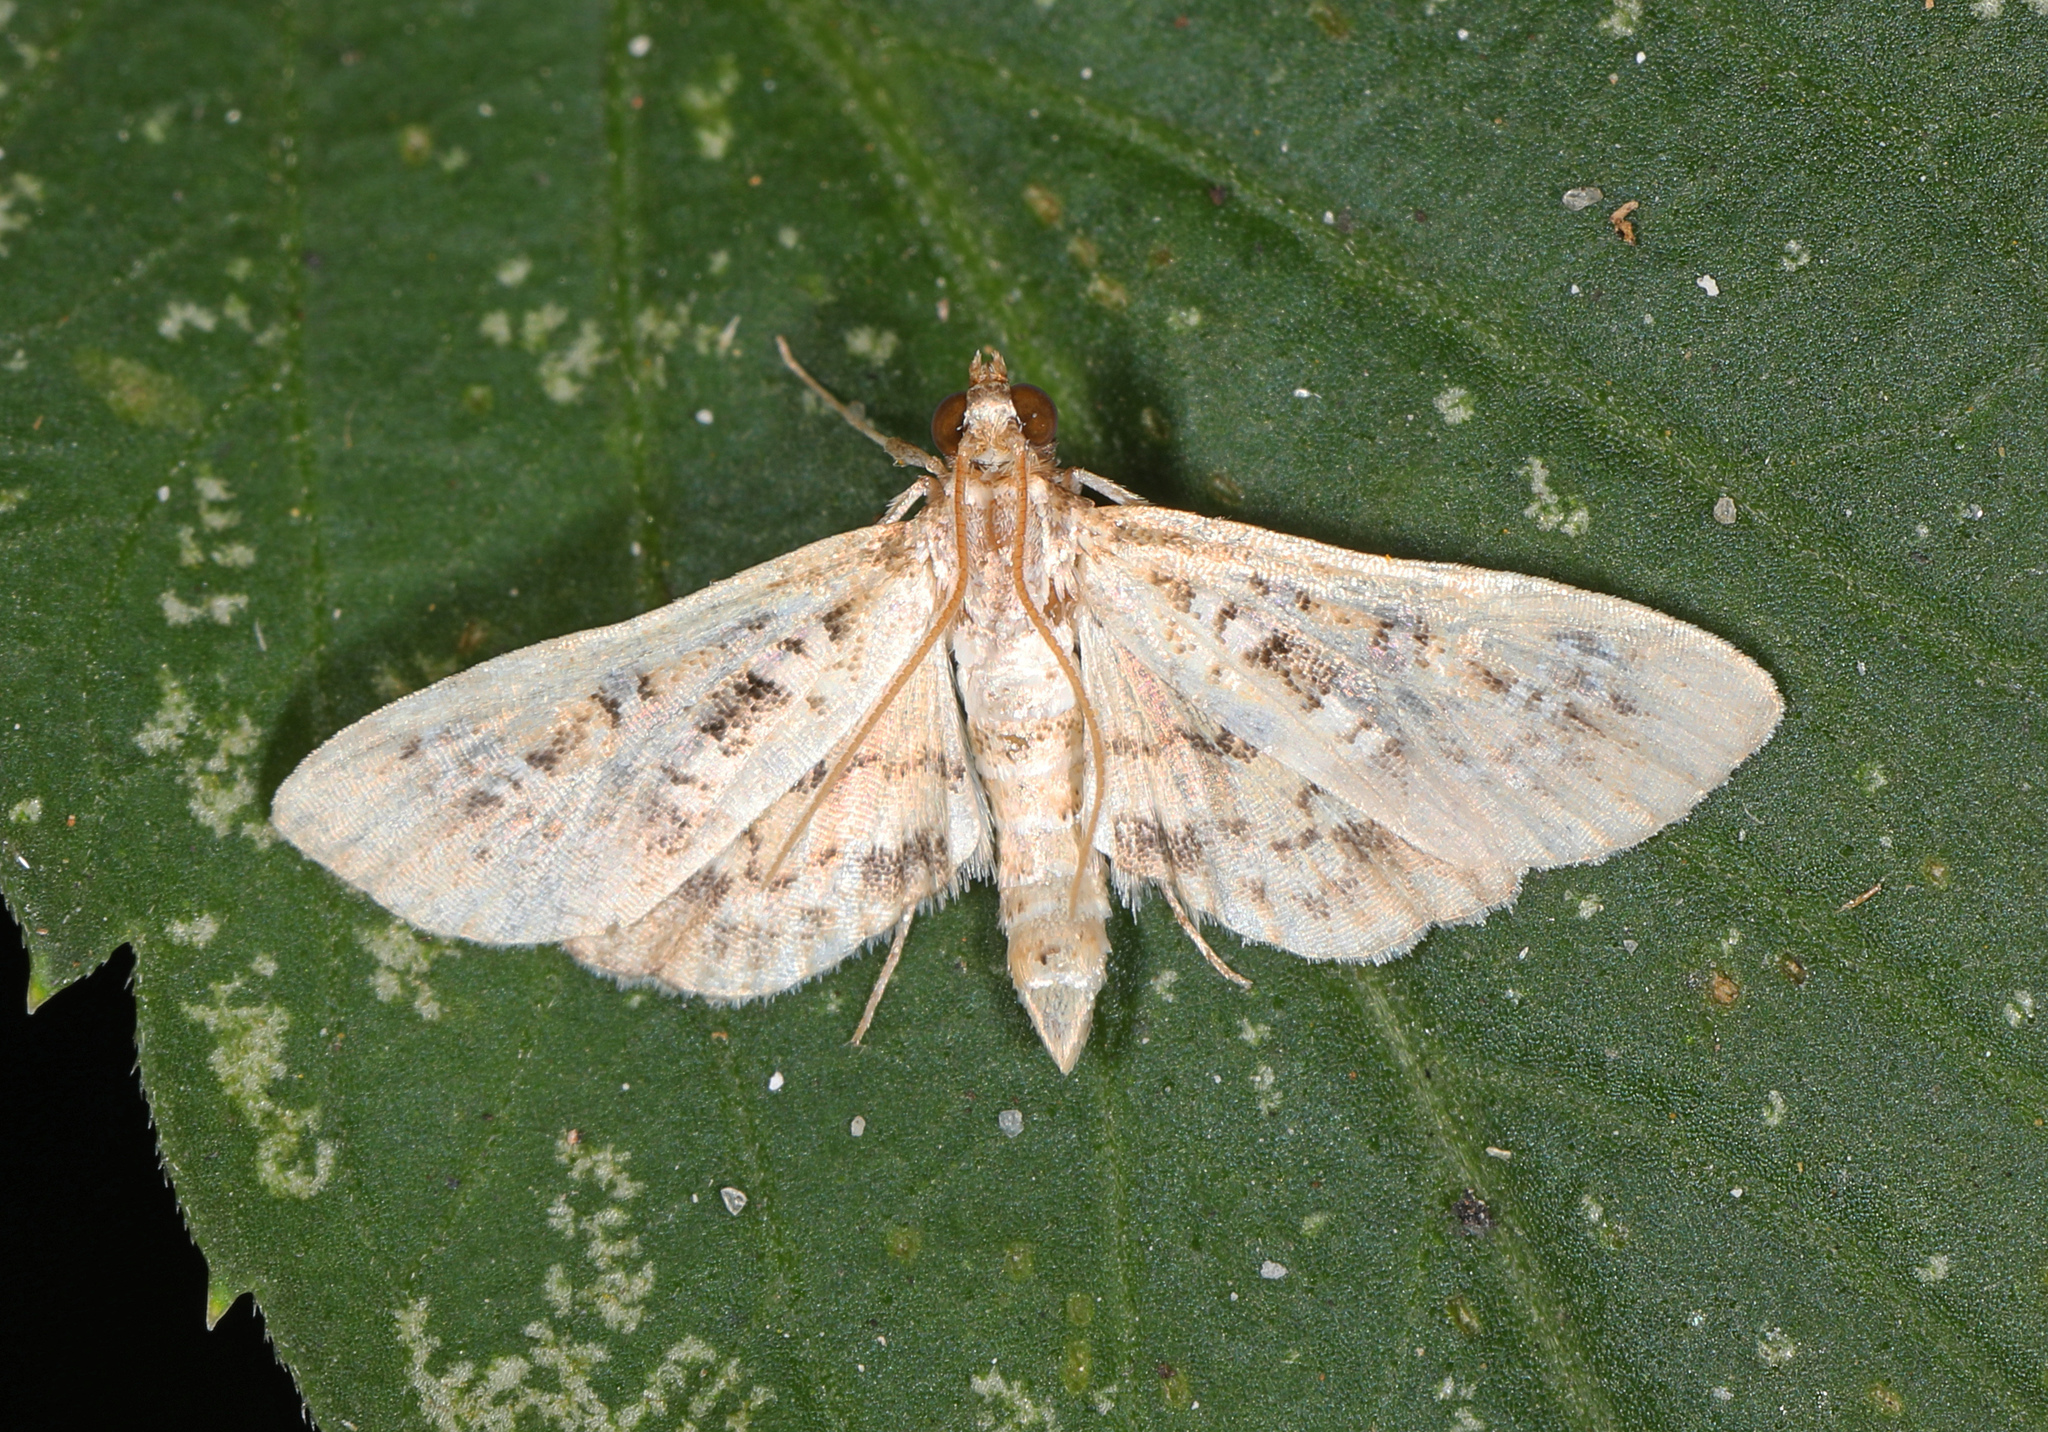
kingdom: Animalia
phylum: Arthropoda
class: Insecta
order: Lepidoptera
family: Crambidae
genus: Samea
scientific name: Samea multiplicalis
